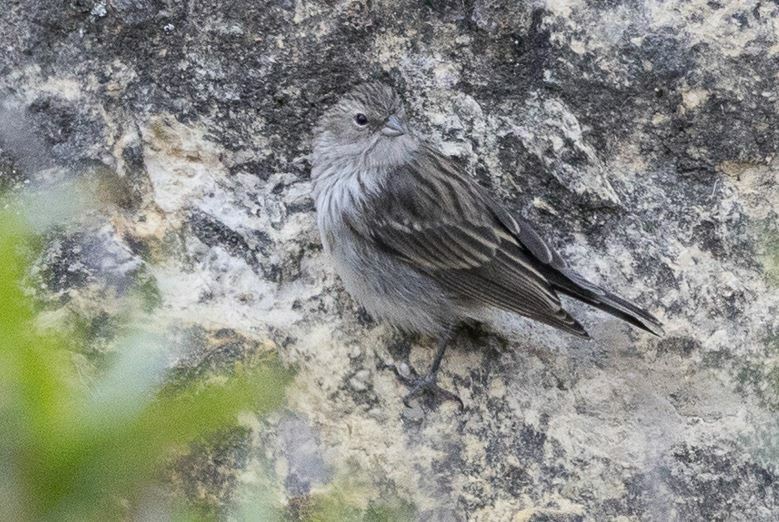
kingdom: Animalia
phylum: Chordata
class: Aves
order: Passeriformes
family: Thraupidae
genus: Geospizopsis
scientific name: Geospizopsis plebejus
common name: Ash-breasted sierra-finch
